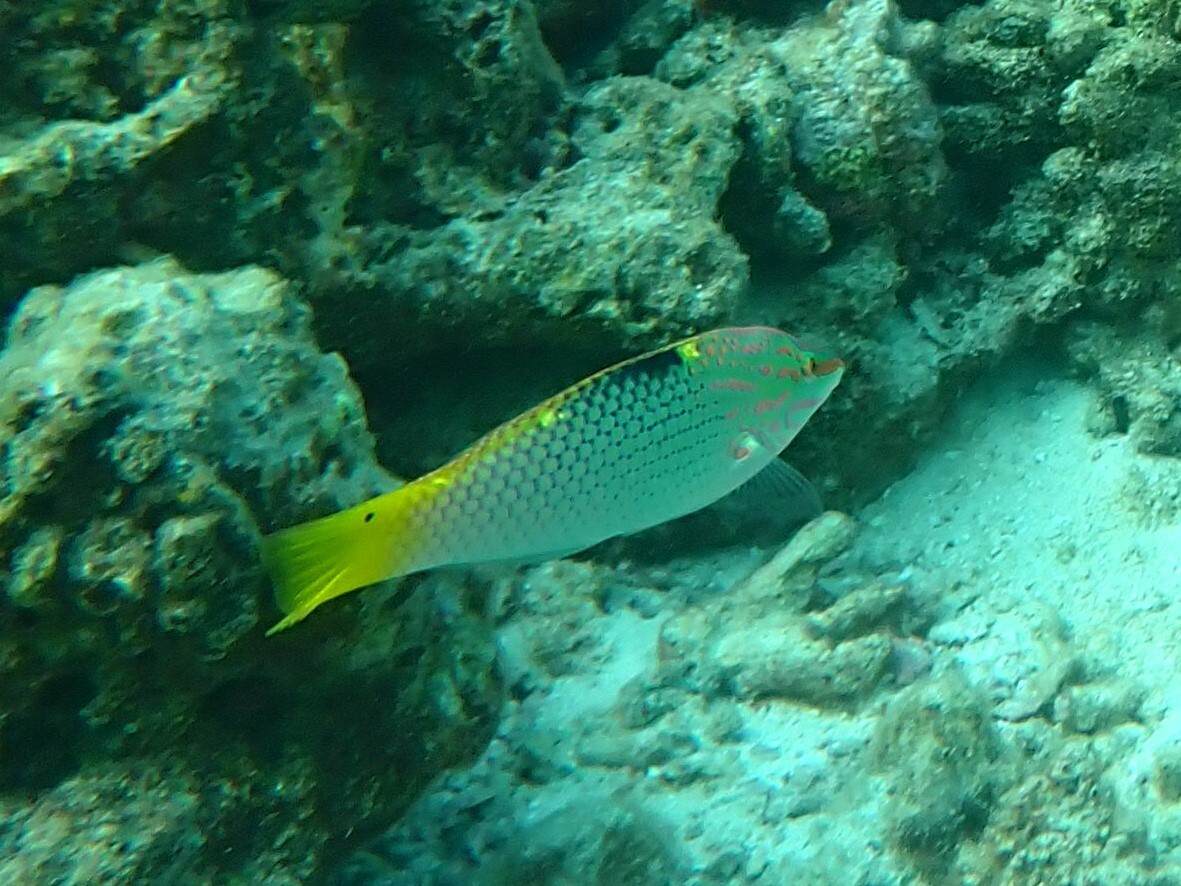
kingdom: Animalia
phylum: Chordata
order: Perciformes
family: Labridae
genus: Halichoeres
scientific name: Halichoeres hortulanus
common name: Checkerboard wrasse
